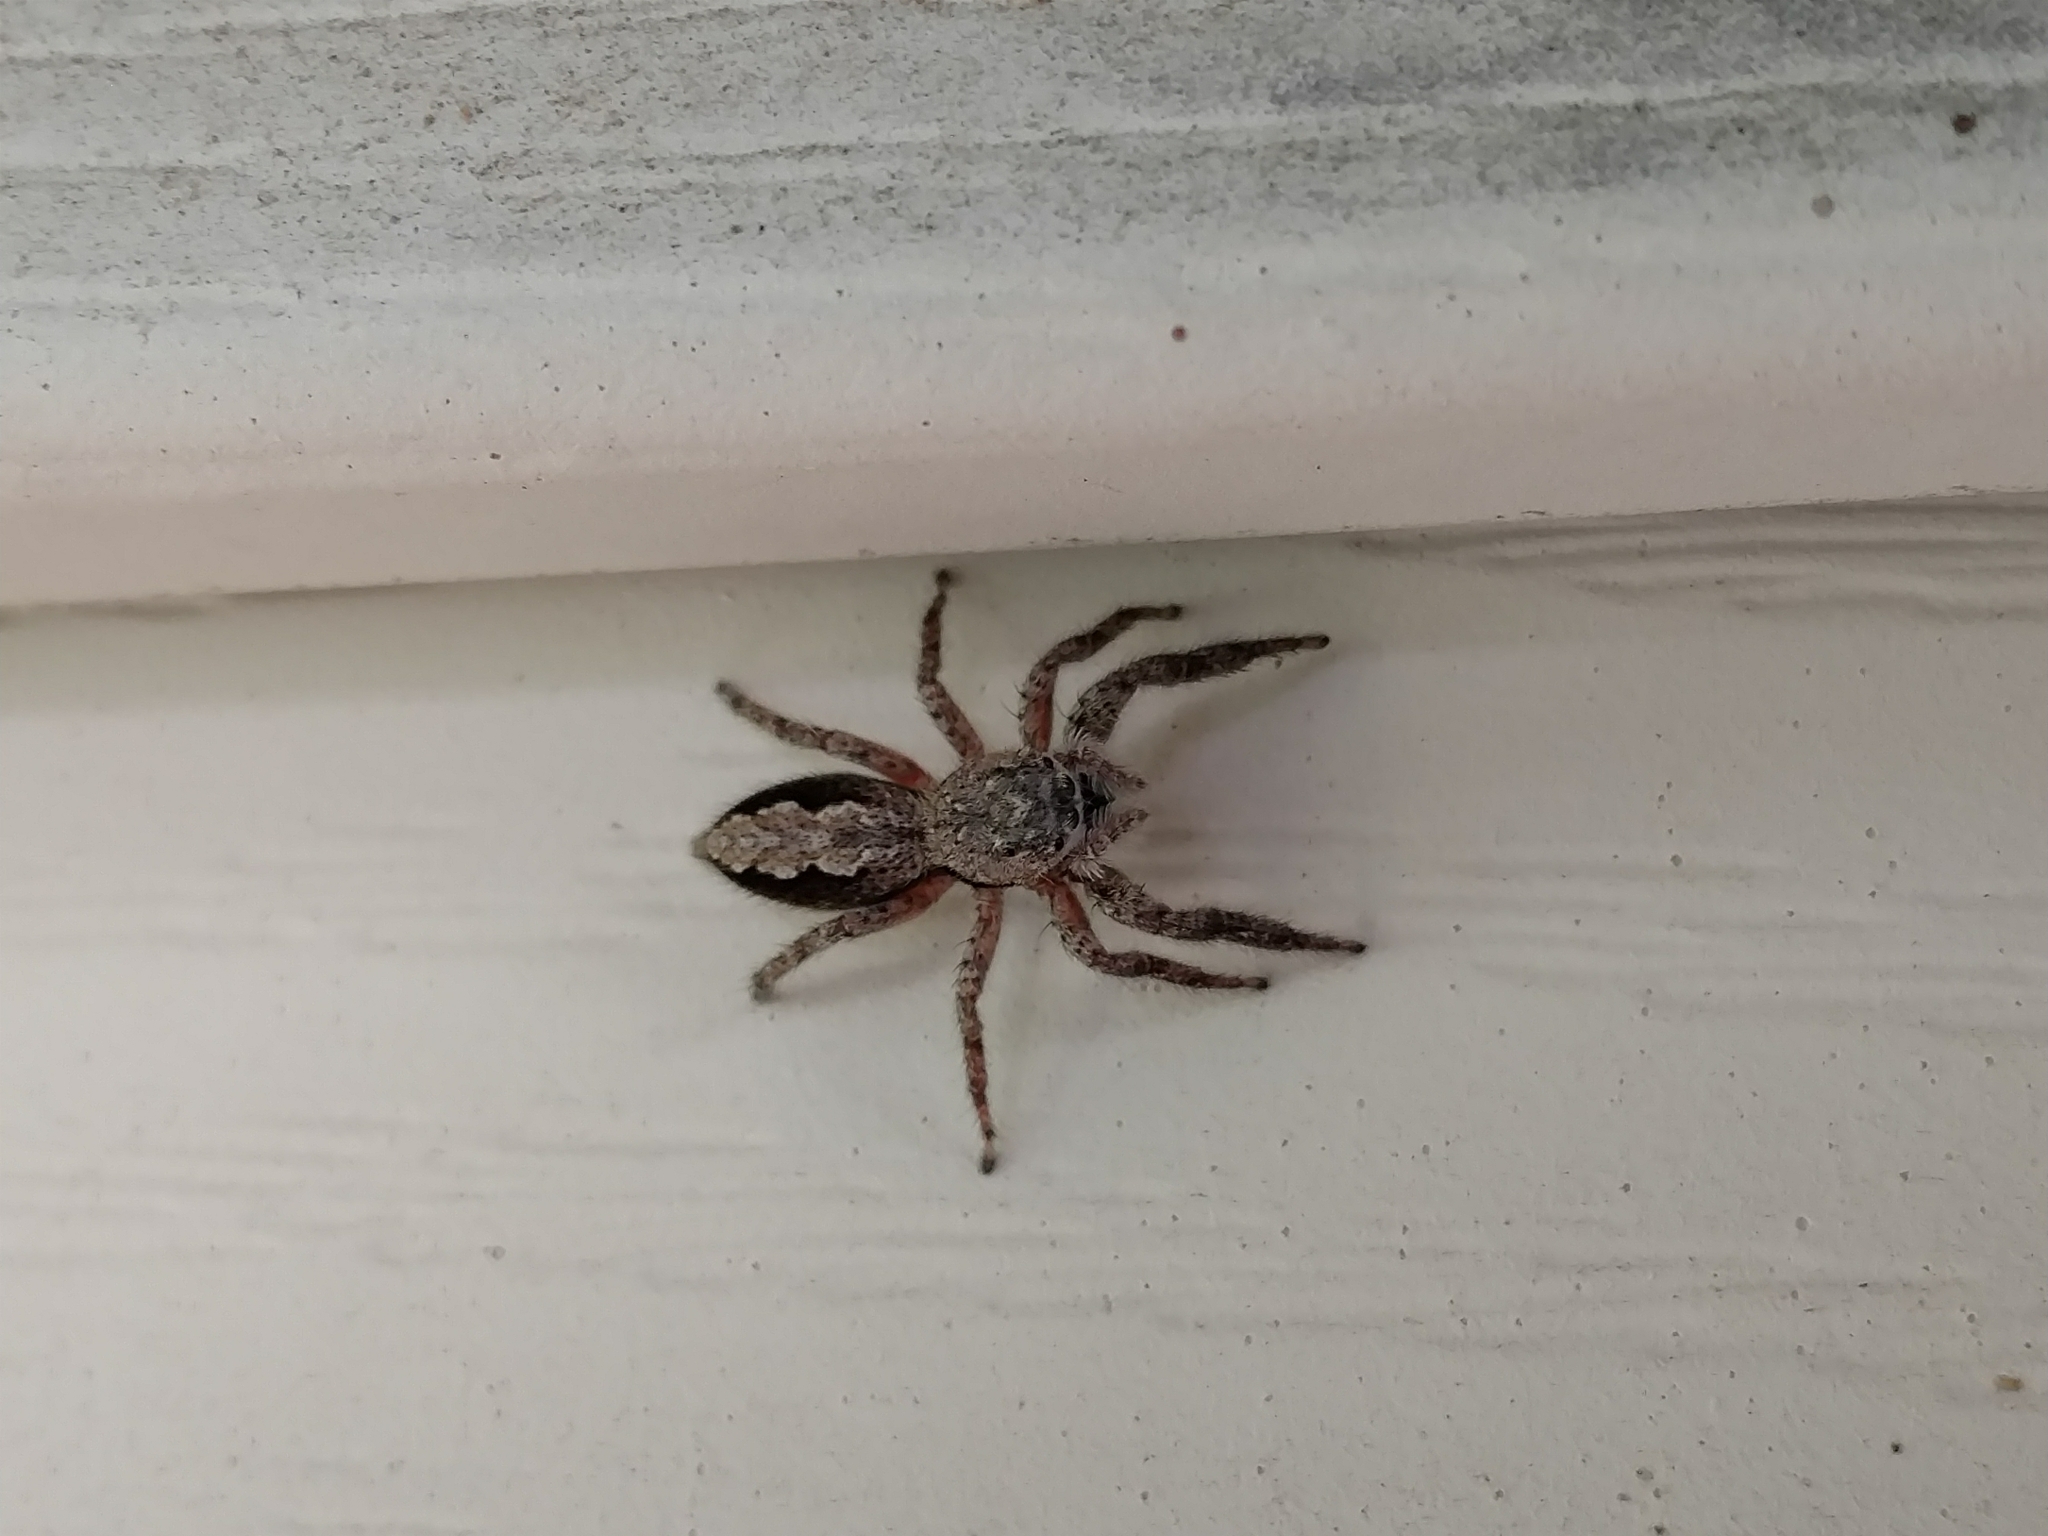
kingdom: Animalia
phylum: Arthropoda
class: Arachnida
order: Araneae
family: Salticidae
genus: Platycryptus
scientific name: Platycryptus undatus
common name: Tan jumping spider
